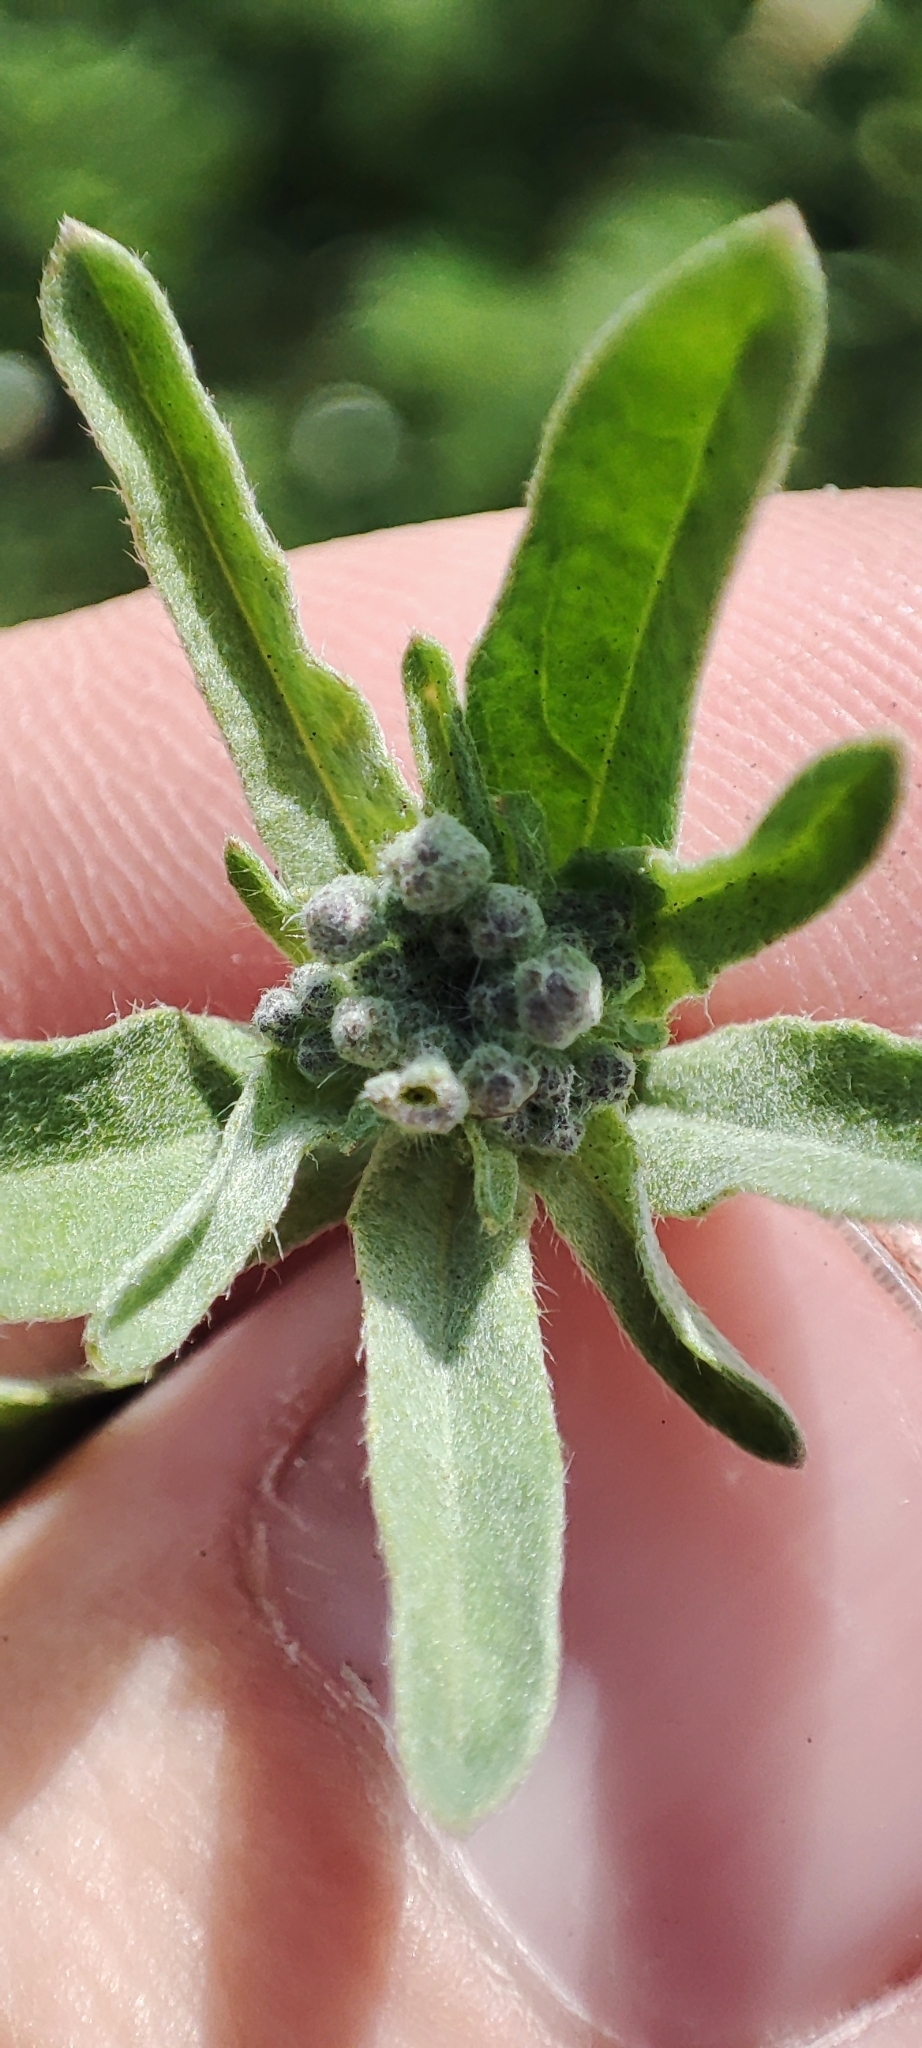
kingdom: Plantae
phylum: Tracheophyta
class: Magnoliopsida
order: Brassicales
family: Brassicaceae
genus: Berteroa
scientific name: Berteroa incana
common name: Hoary alison
